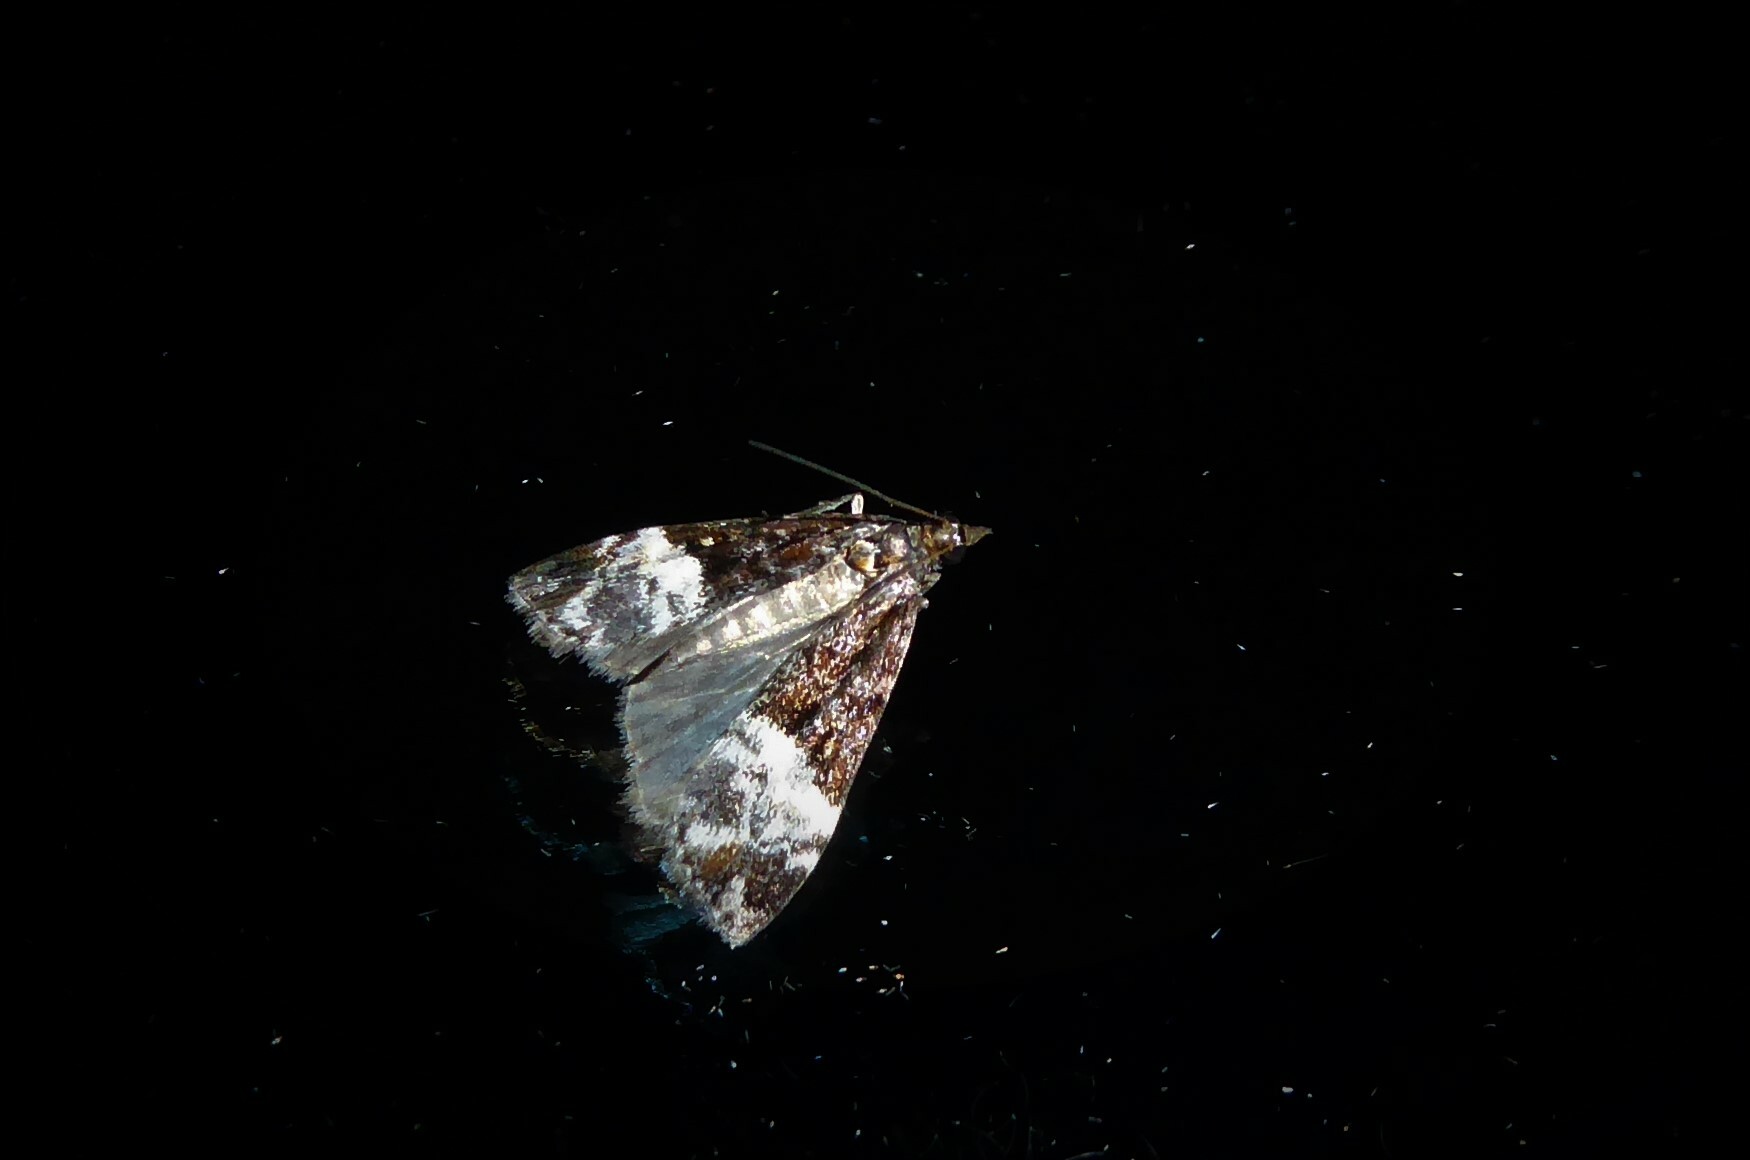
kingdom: Animalia
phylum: Arthropoda
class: Insecta
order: Lepidoptera
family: Crambidae
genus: Scoparia
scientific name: Scoparia minusculalis
